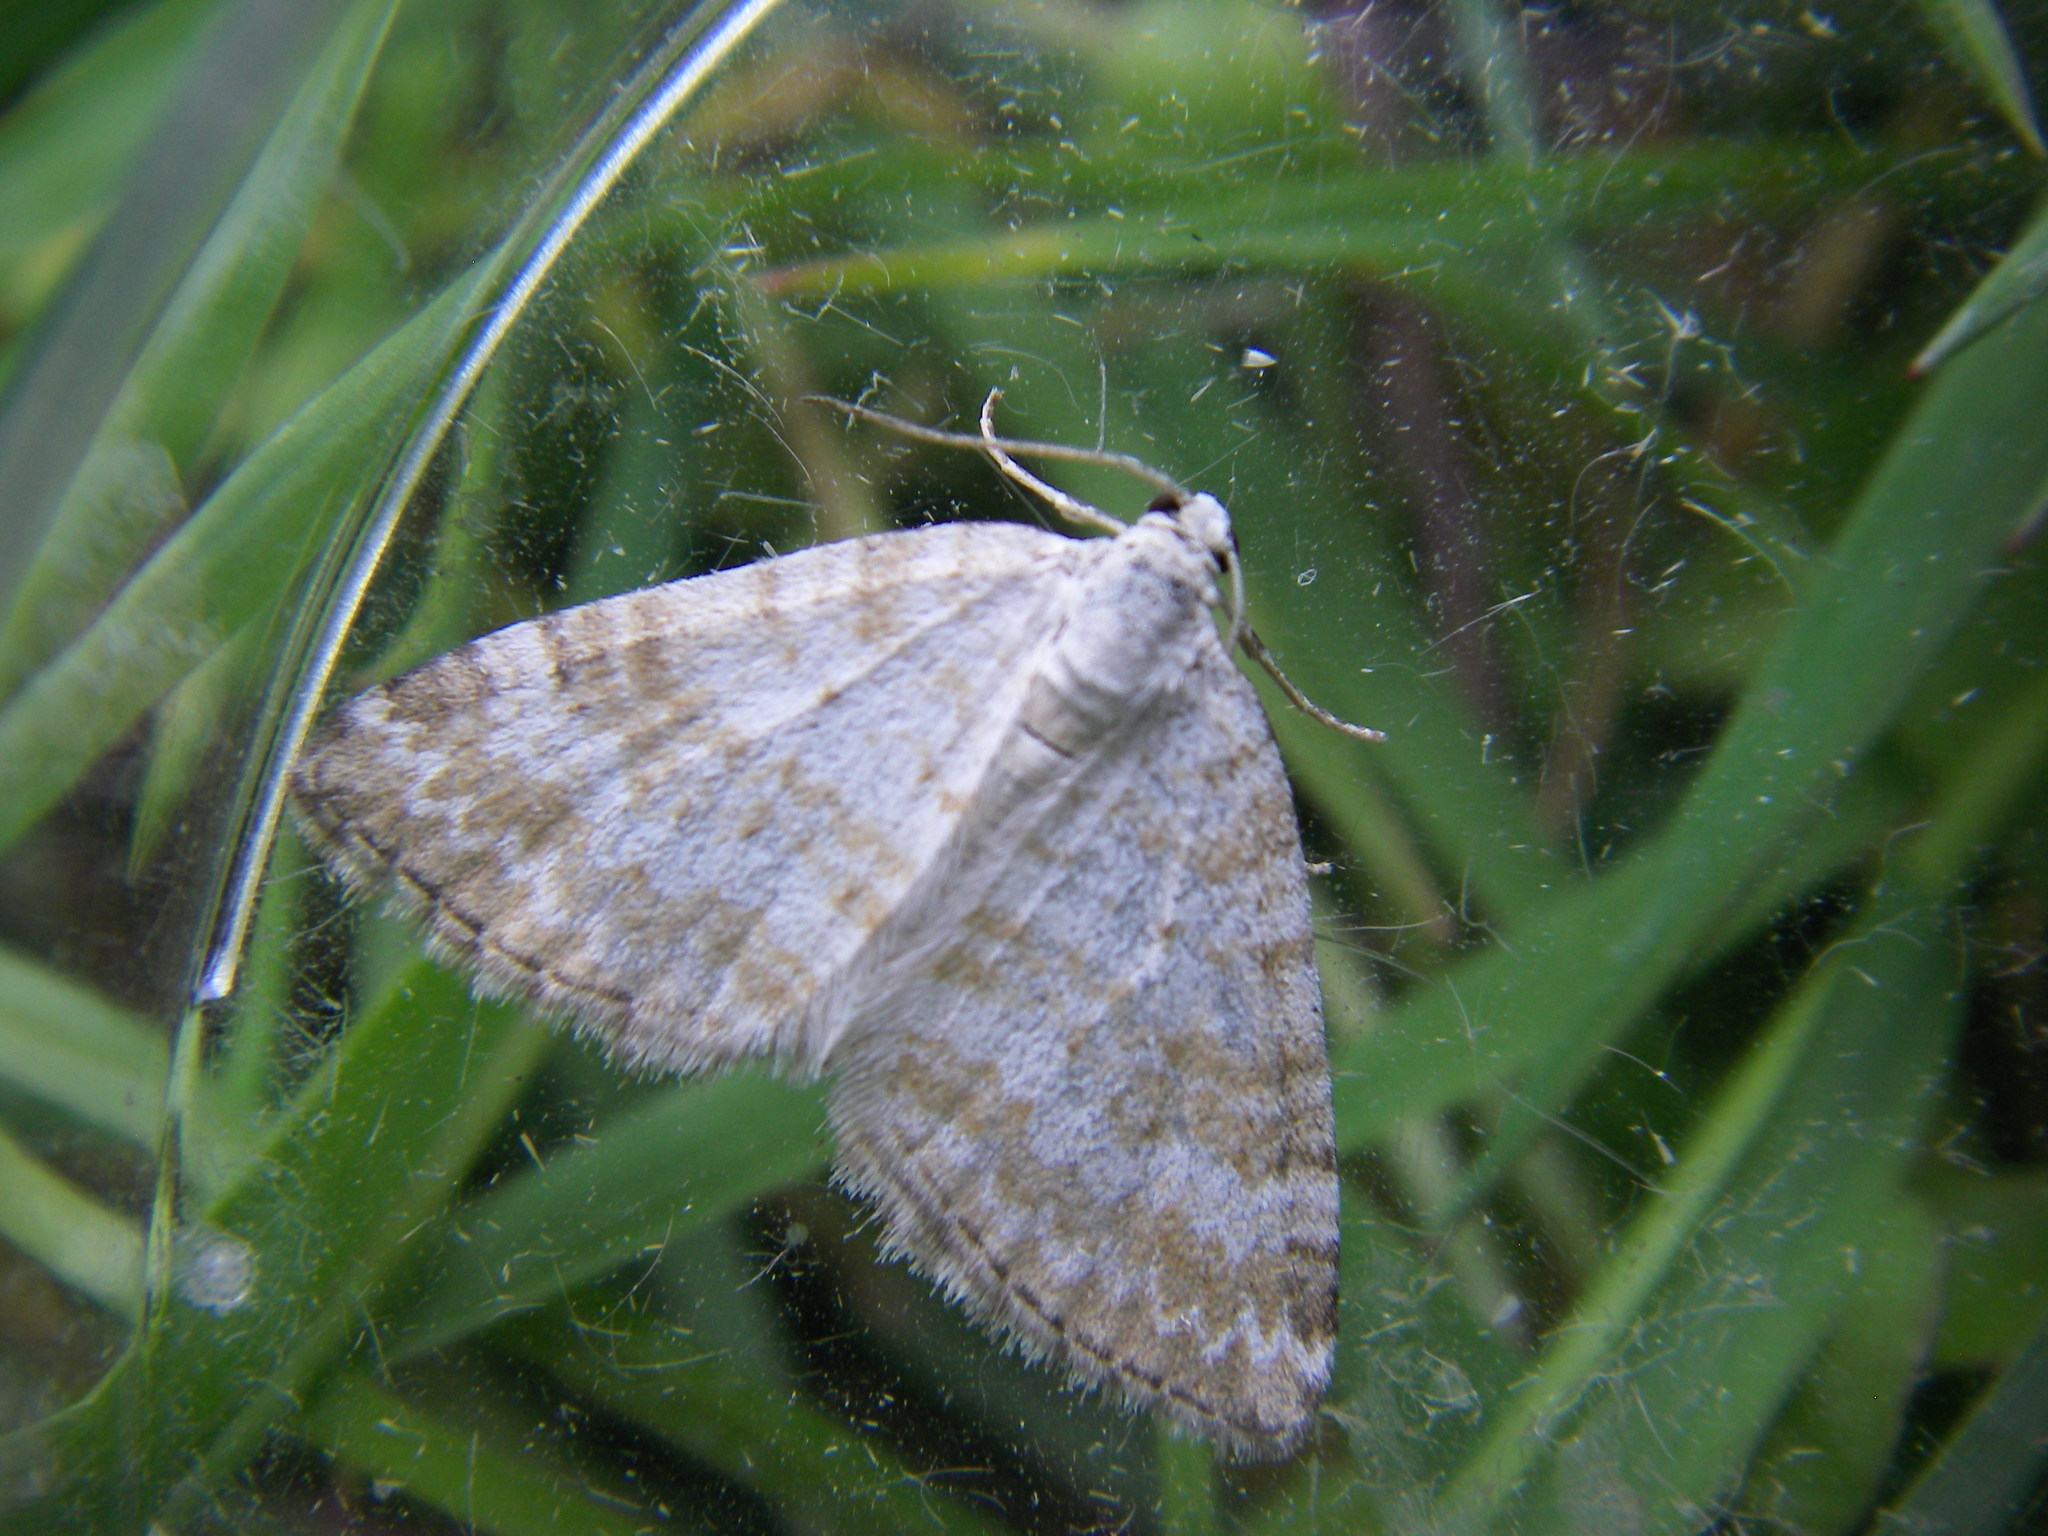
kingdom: Animalia
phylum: Arthropoda
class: Insecta
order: Lepidoptera
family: Geometridae
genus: Perizoma
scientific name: Perizoma albulata
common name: Grass rivulet
